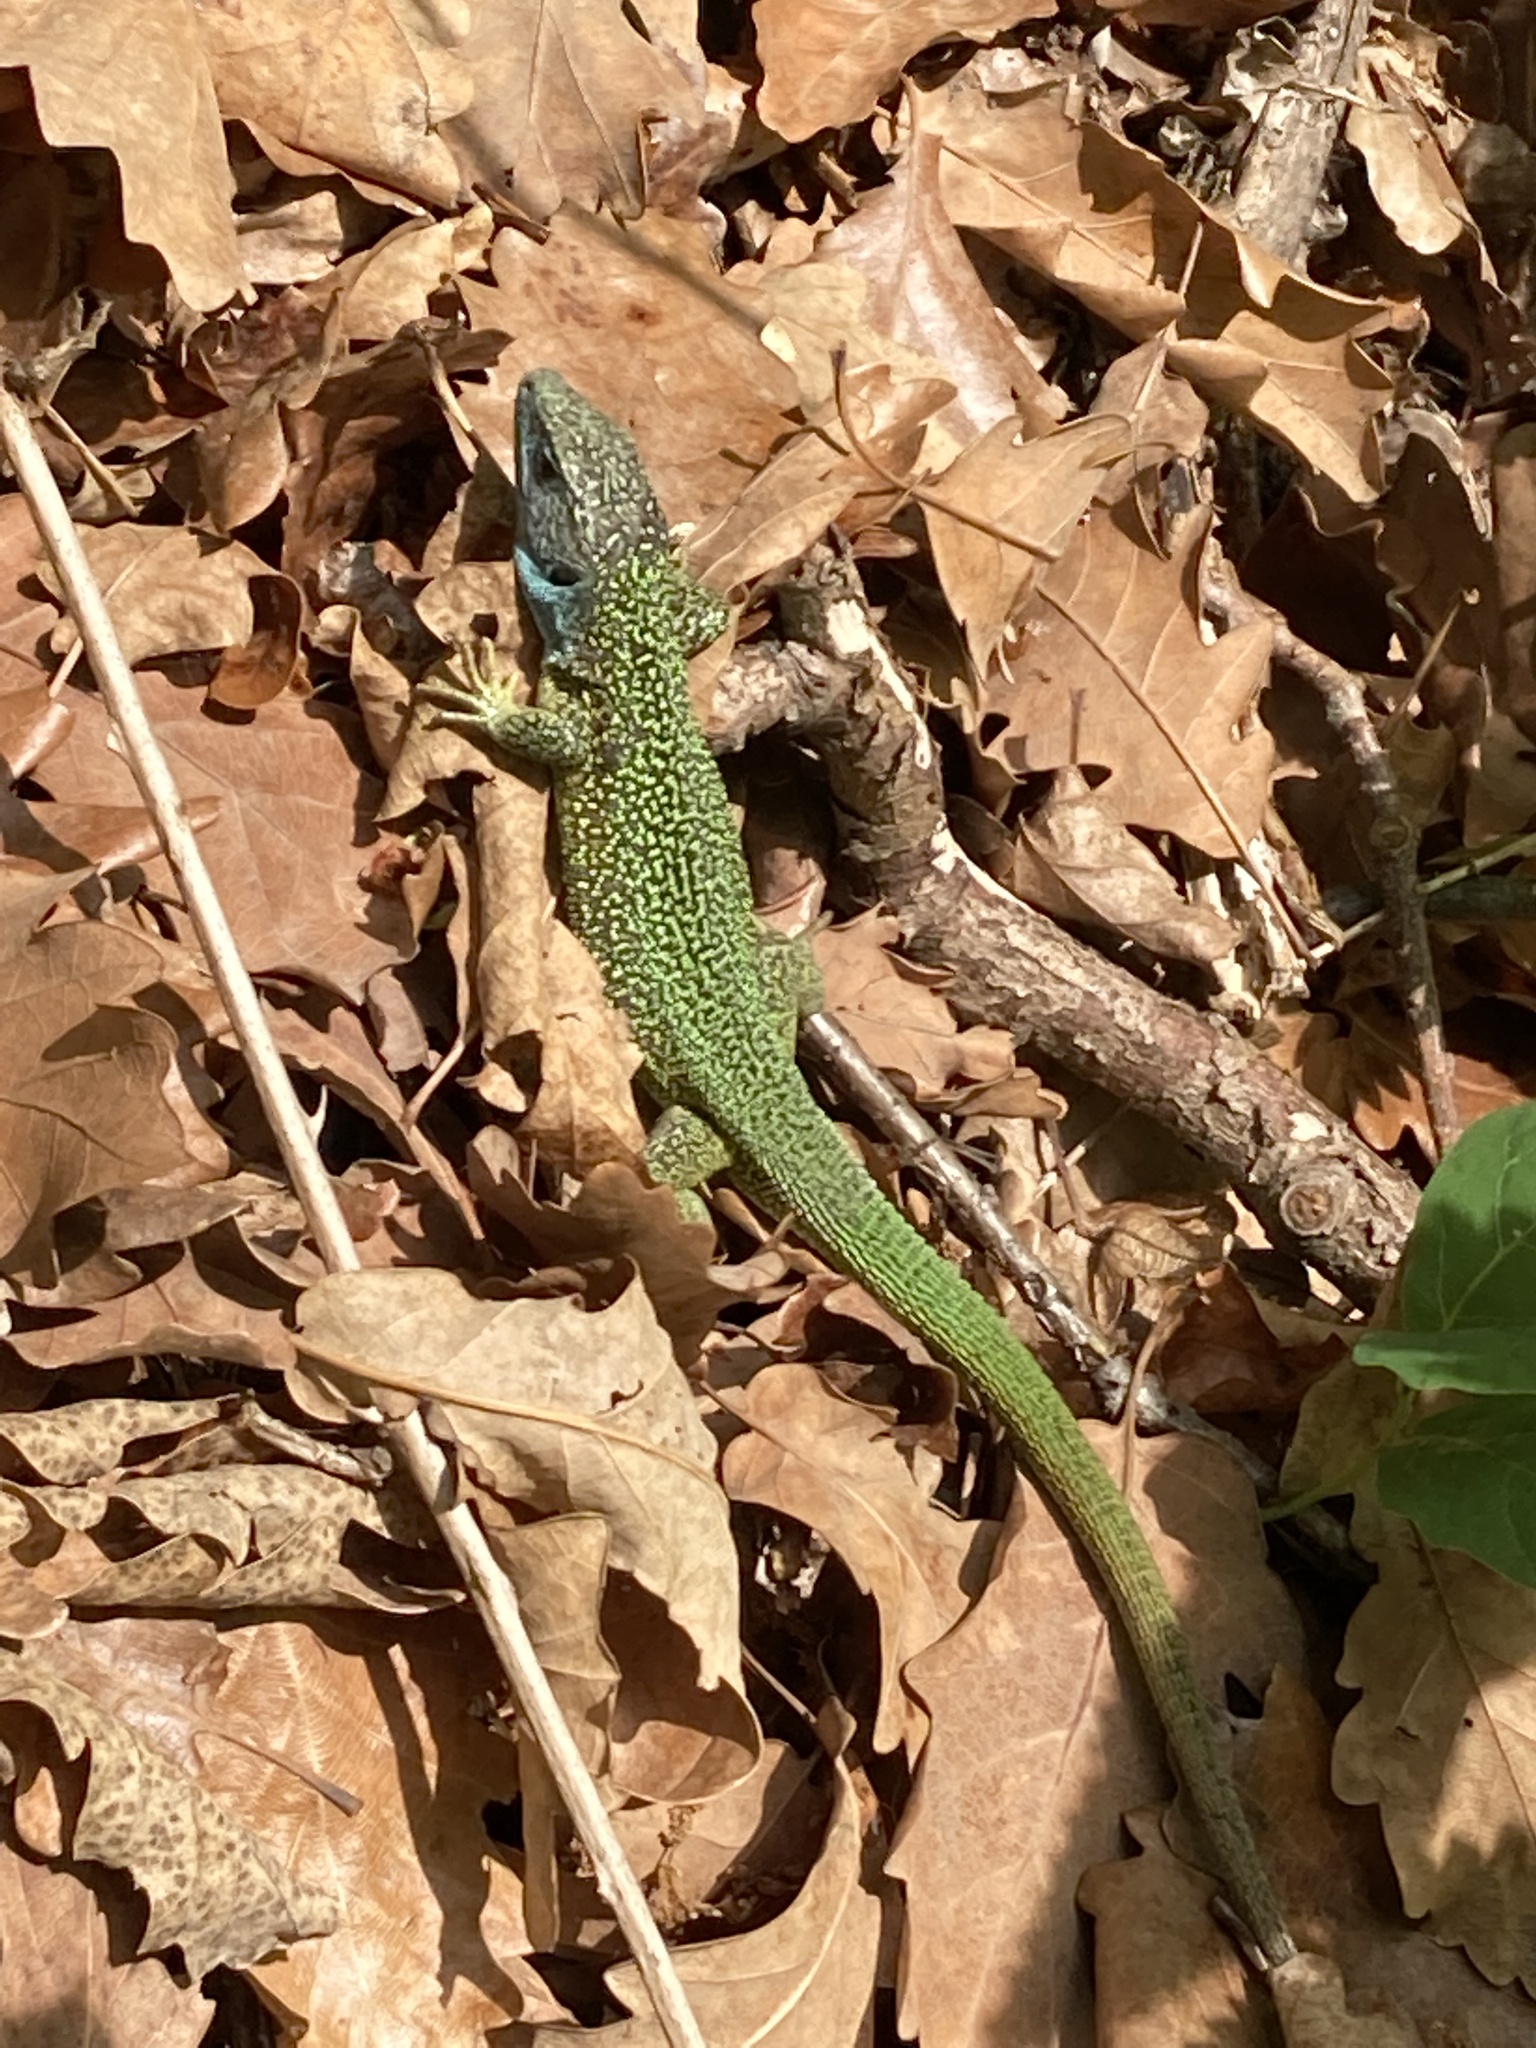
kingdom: Animalia
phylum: Chordata
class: Squamata
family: Lacertidae
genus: Lacerta
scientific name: Lacerta viridis
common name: European green lizard
